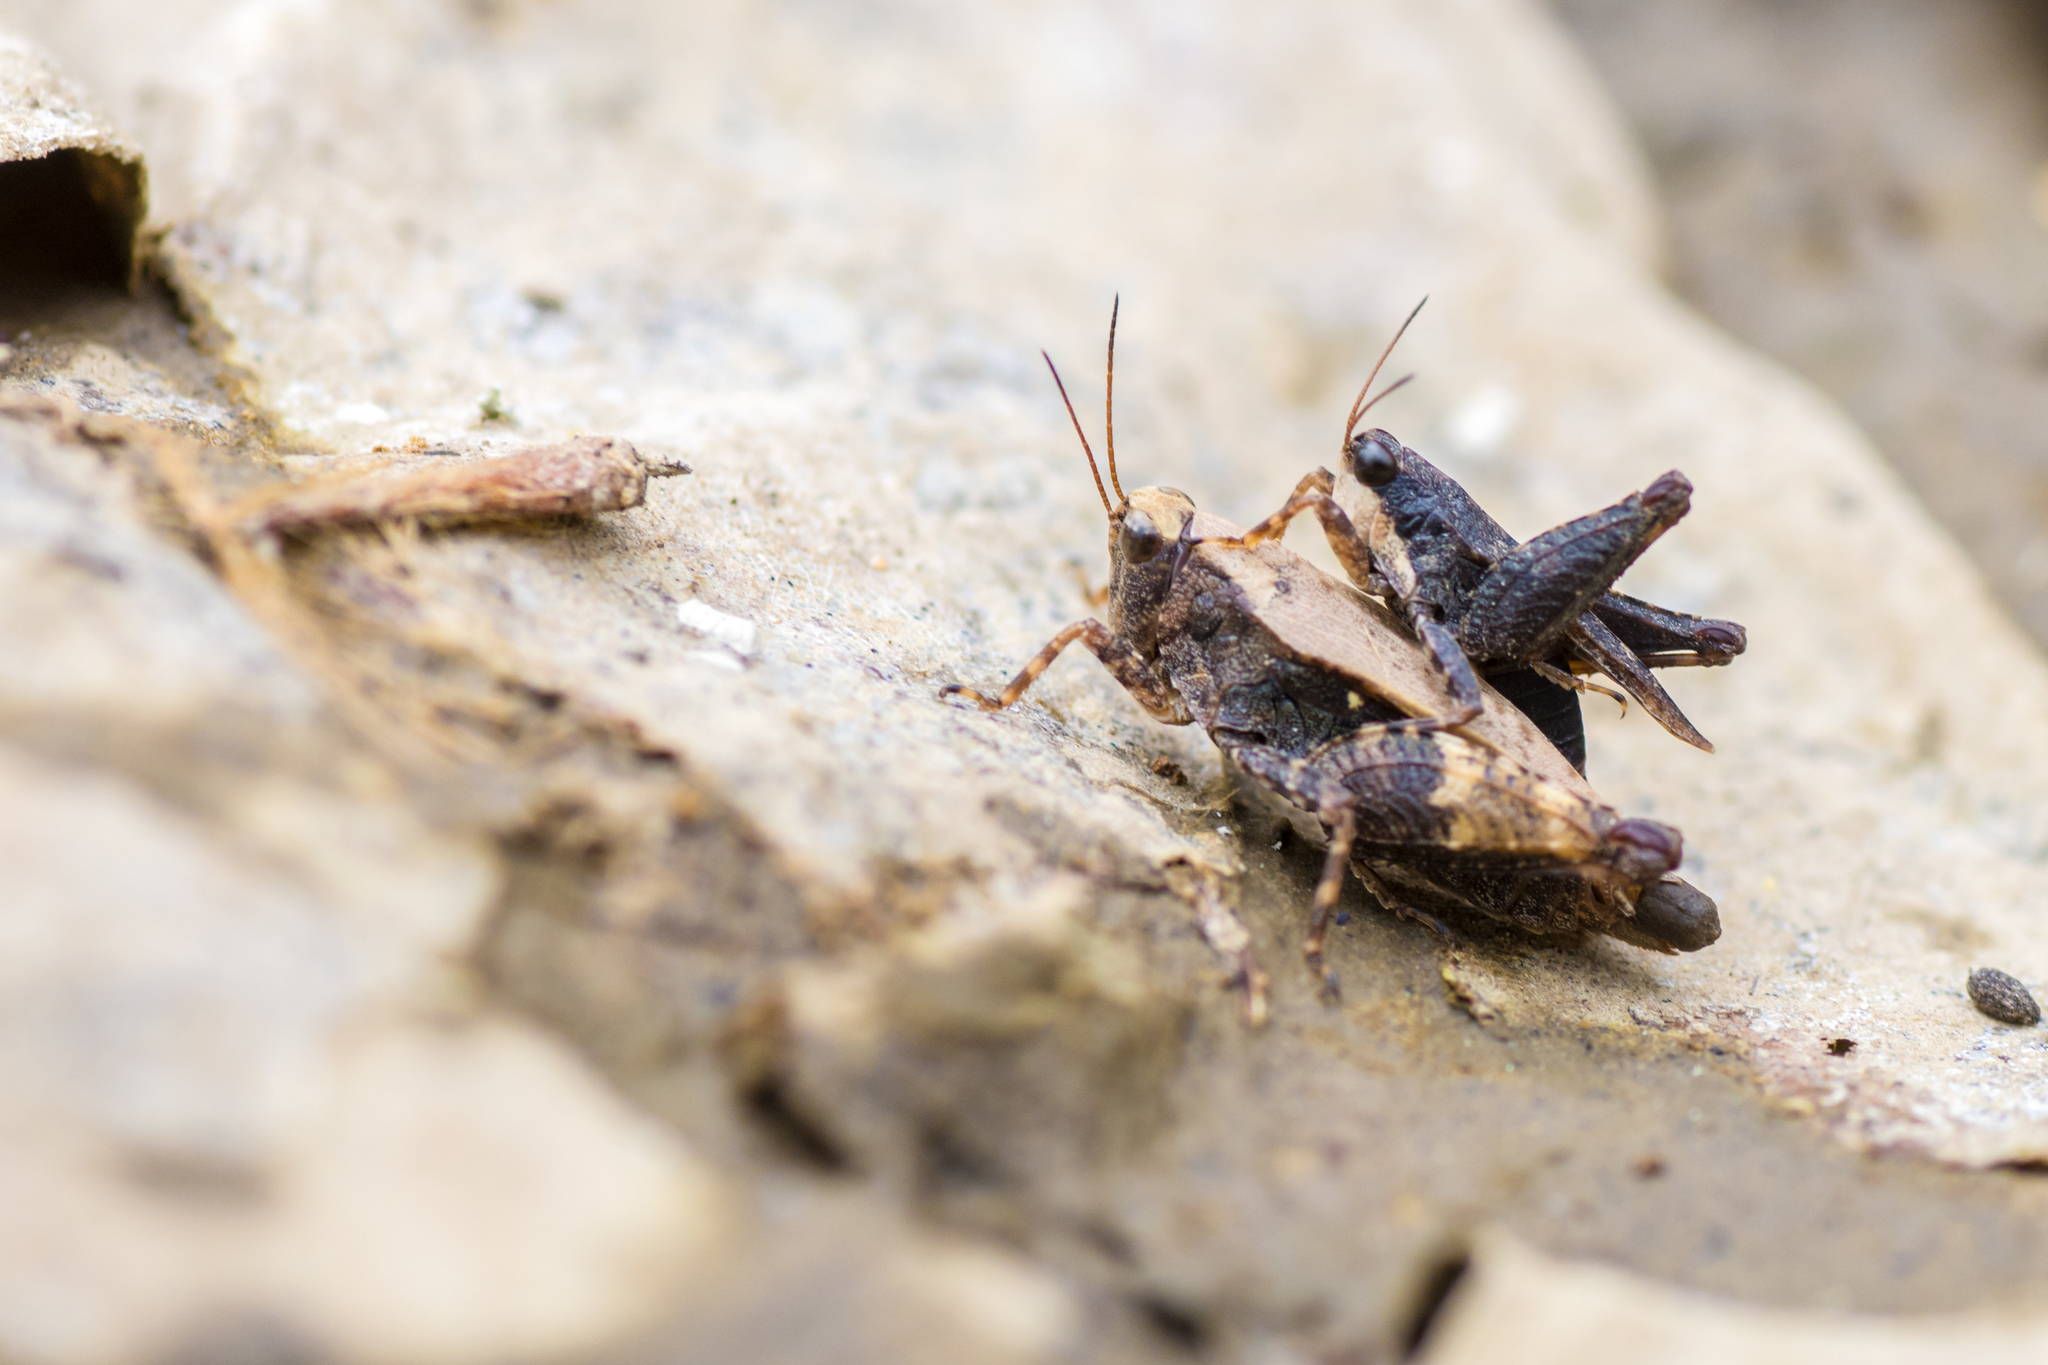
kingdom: Animalia
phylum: Arthropoda
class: Insecta
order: Orthoptera
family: Tetrigidae
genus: Tettigidea
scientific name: Tettigidea laterale
